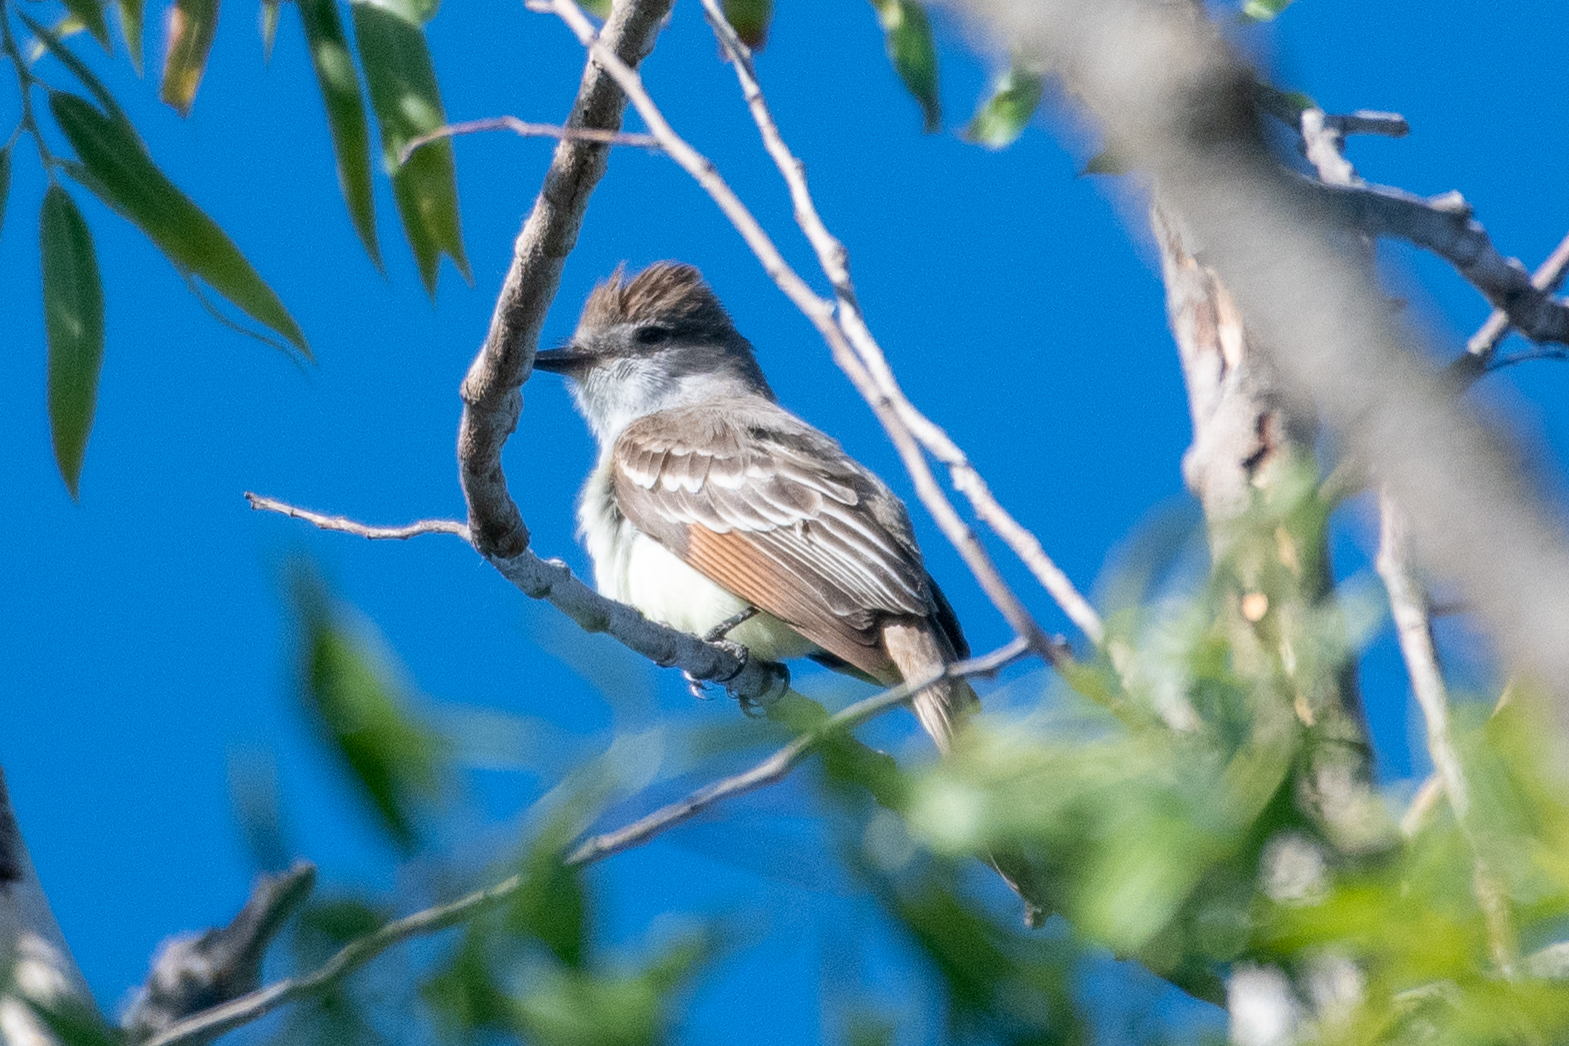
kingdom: Animalia
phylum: Chordata
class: Aves
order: Passeriformes
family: Tyrannidae
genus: Myiarchus
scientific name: Myiarchus cinerascens
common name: Ash-throated flycatcher
